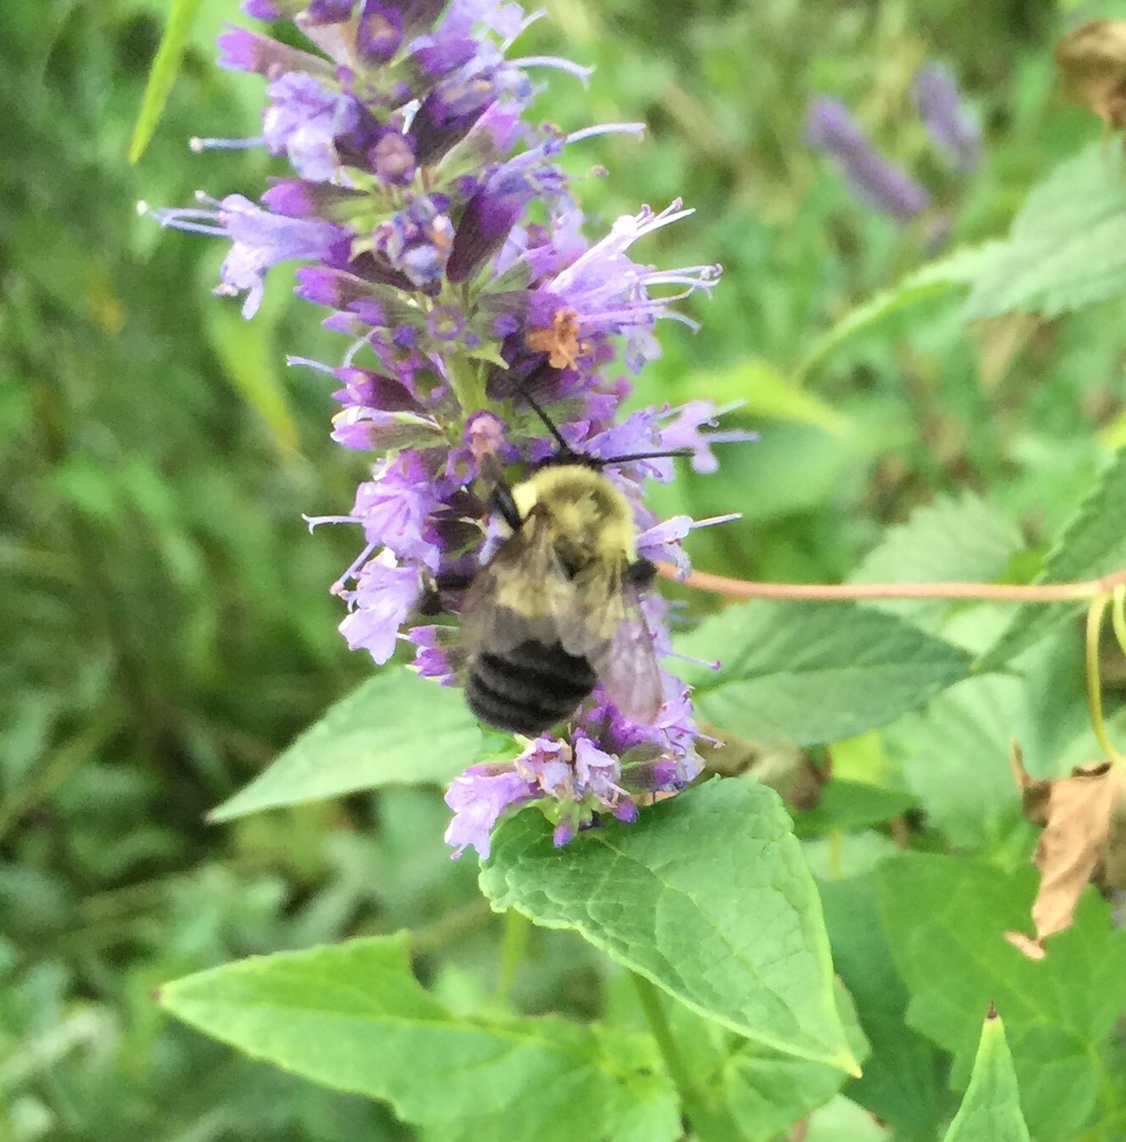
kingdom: Animalia
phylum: Arthropoda
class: Insecta
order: Hymenoptera
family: Apidae
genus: Bombus
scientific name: Bombus impatiens
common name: Common eastern bumble bee
